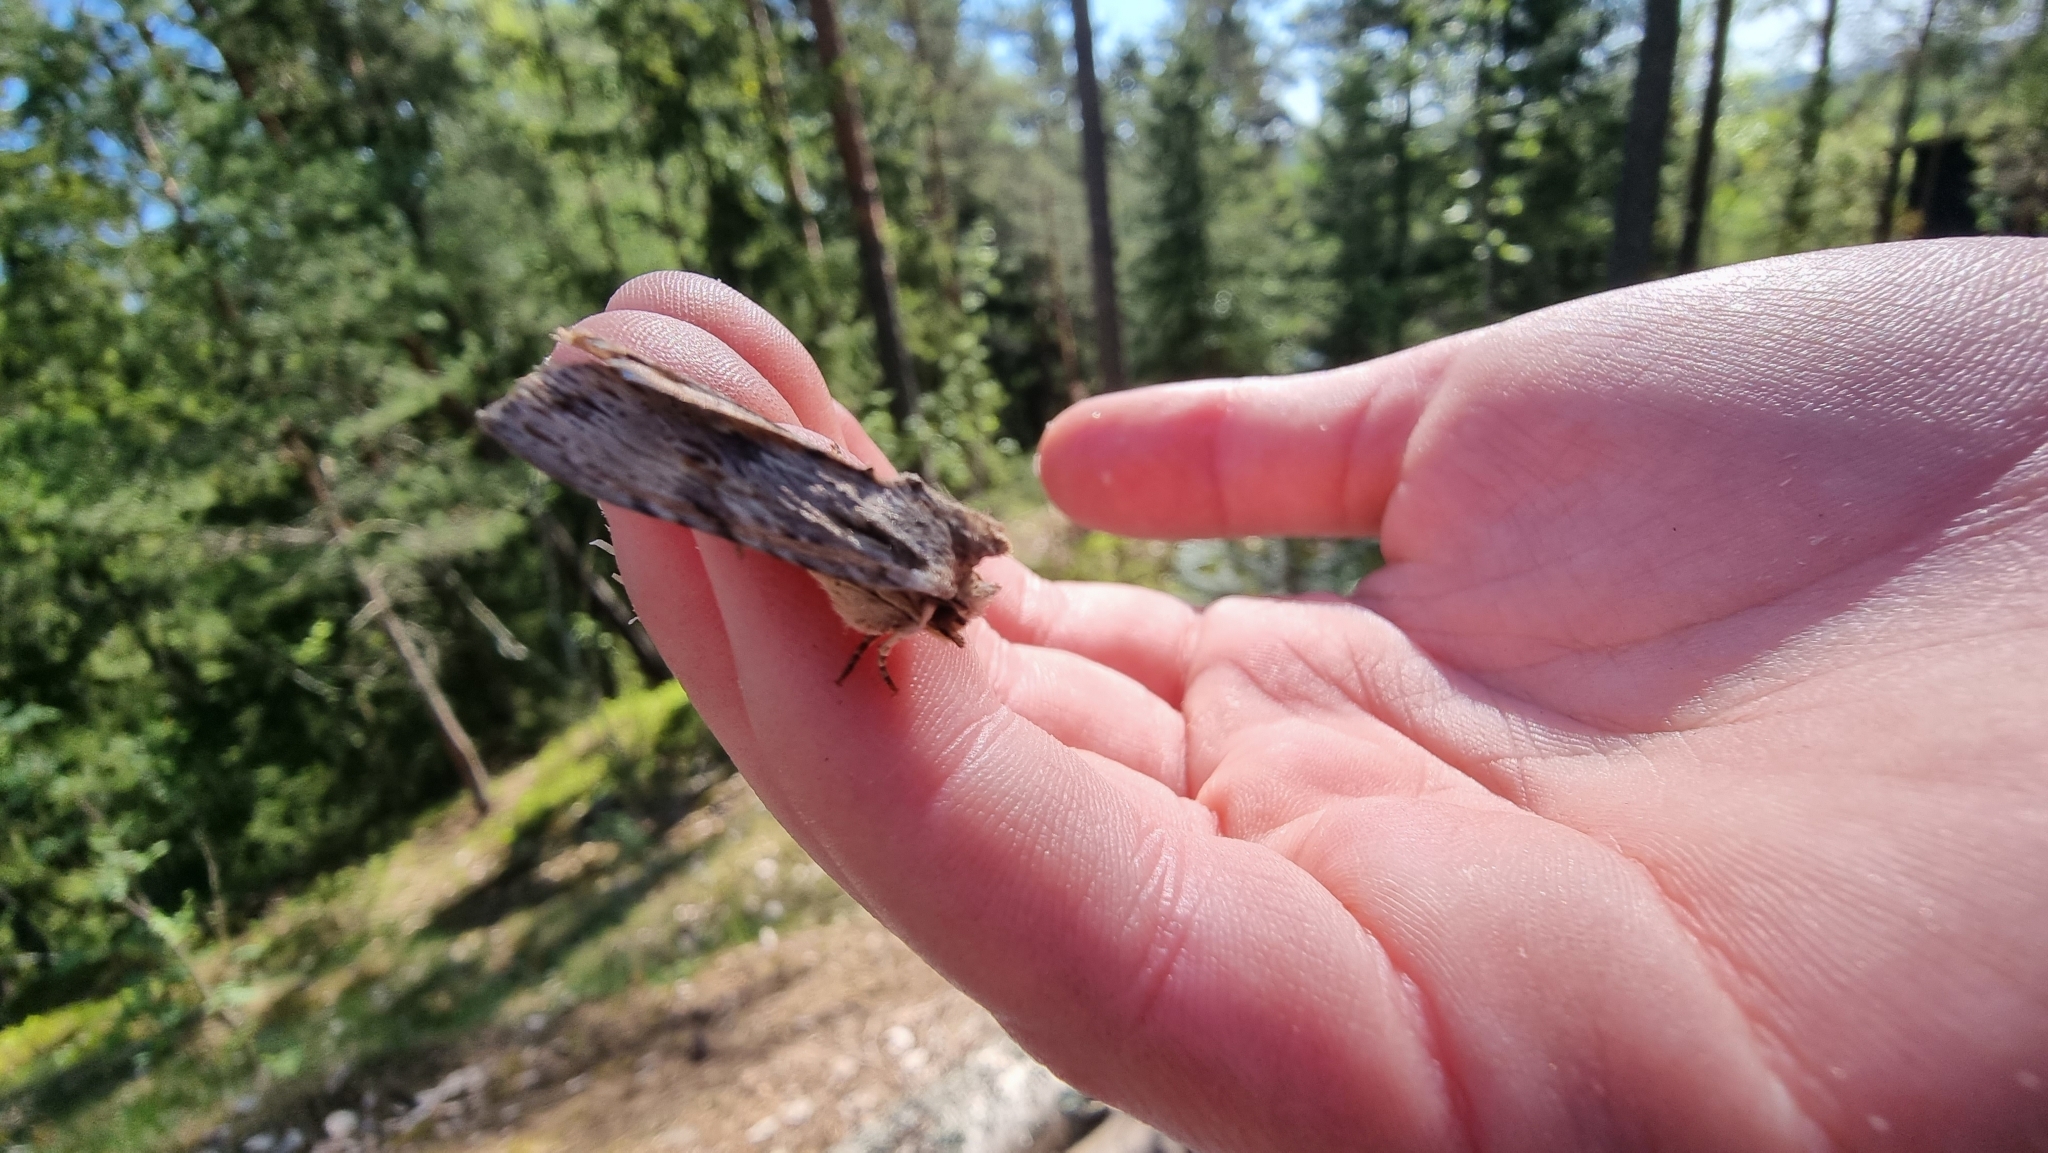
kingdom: Animalia
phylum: Arthropoda
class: Insecta
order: Lepidoptera
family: Noctuidae
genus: Lithophane
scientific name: Lithophane socia
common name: Pale pinion
